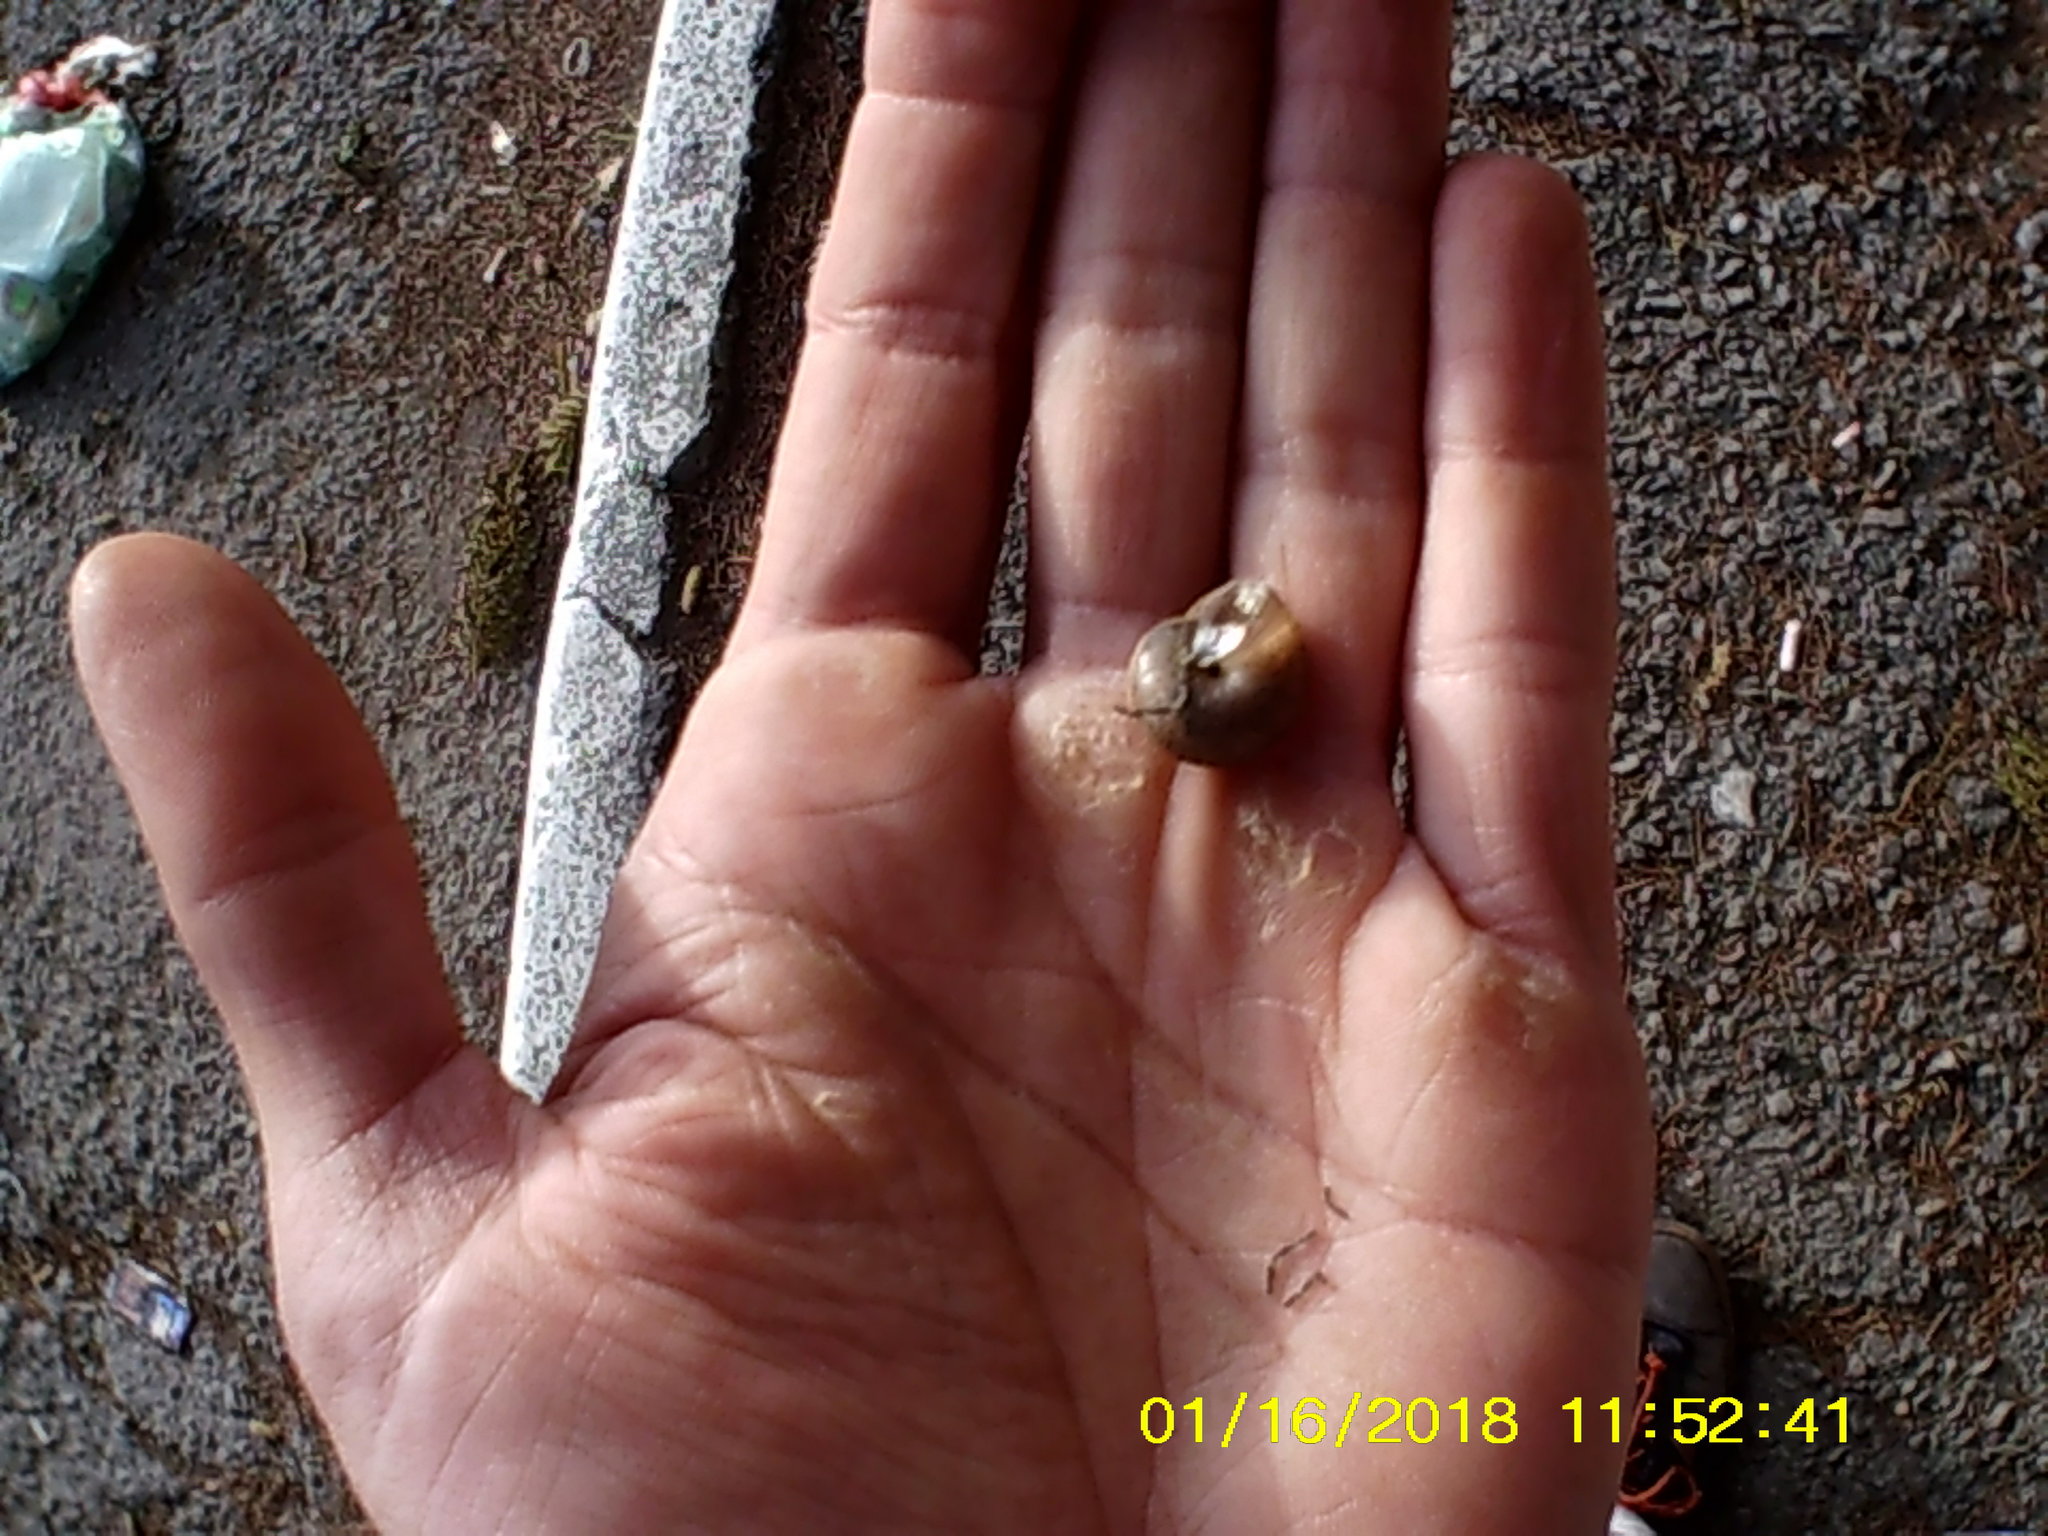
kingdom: Animalia
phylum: Mollusca
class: Gastropoda
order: Stylommatophora
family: Hygromiidae
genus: Monacha
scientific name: Monacha fruticola
